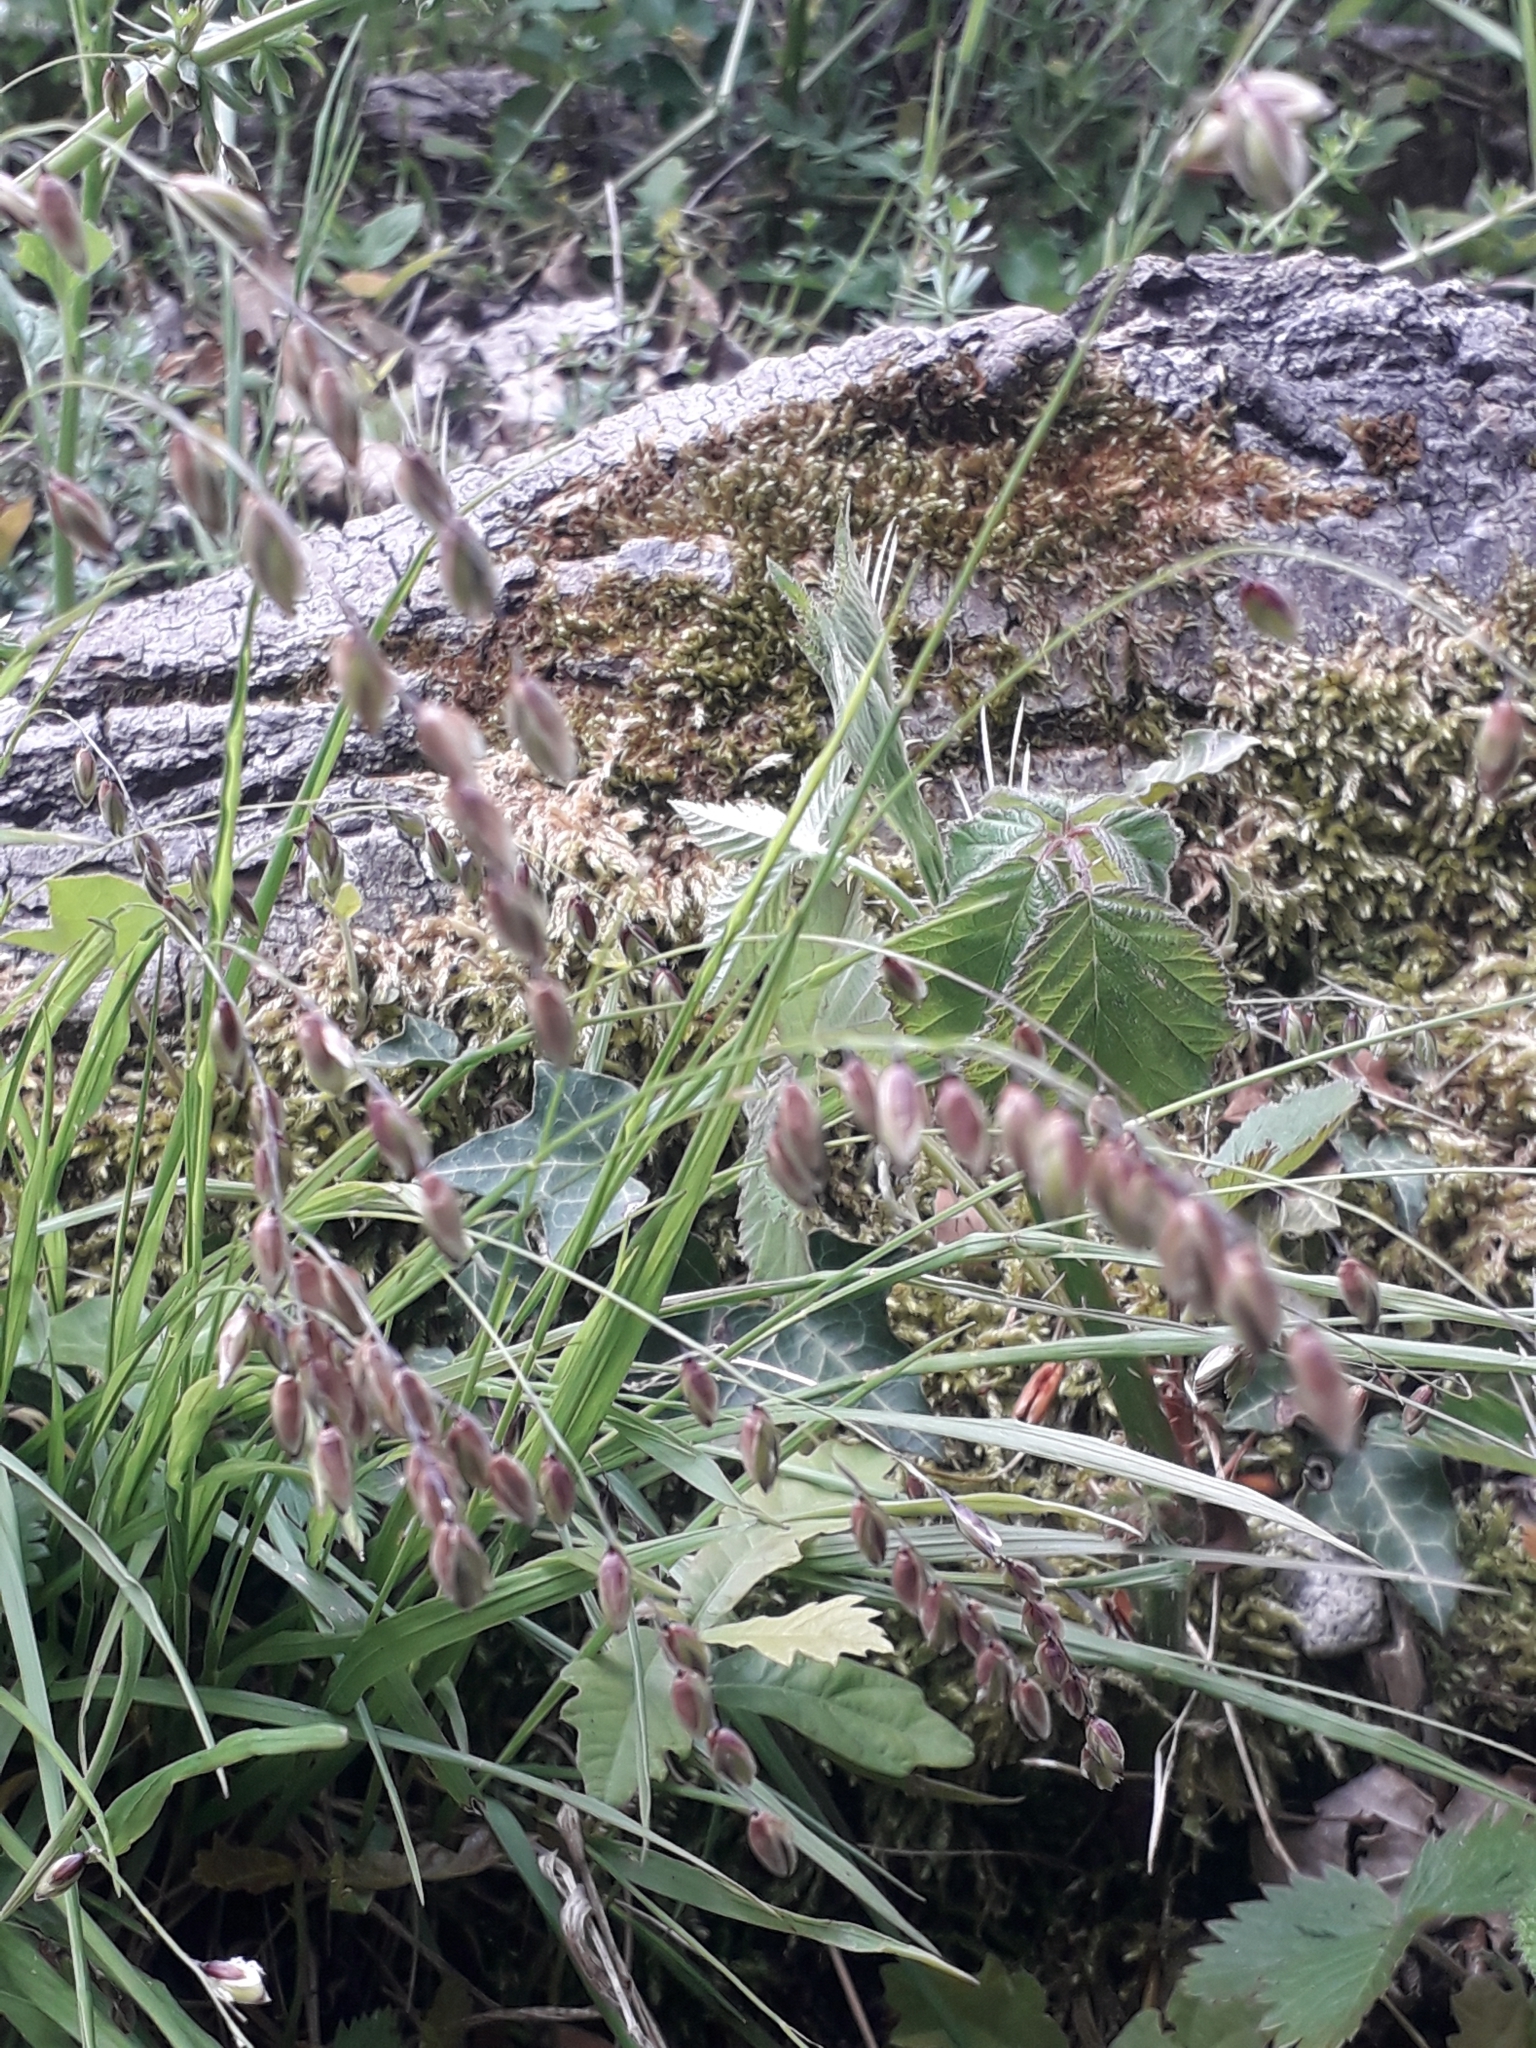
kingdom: Plantae
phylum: Tracheophyta
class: Liliopsida
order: Poales
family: Poaceae
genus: Melica
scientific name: Melica nutans
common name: Mountain melick
